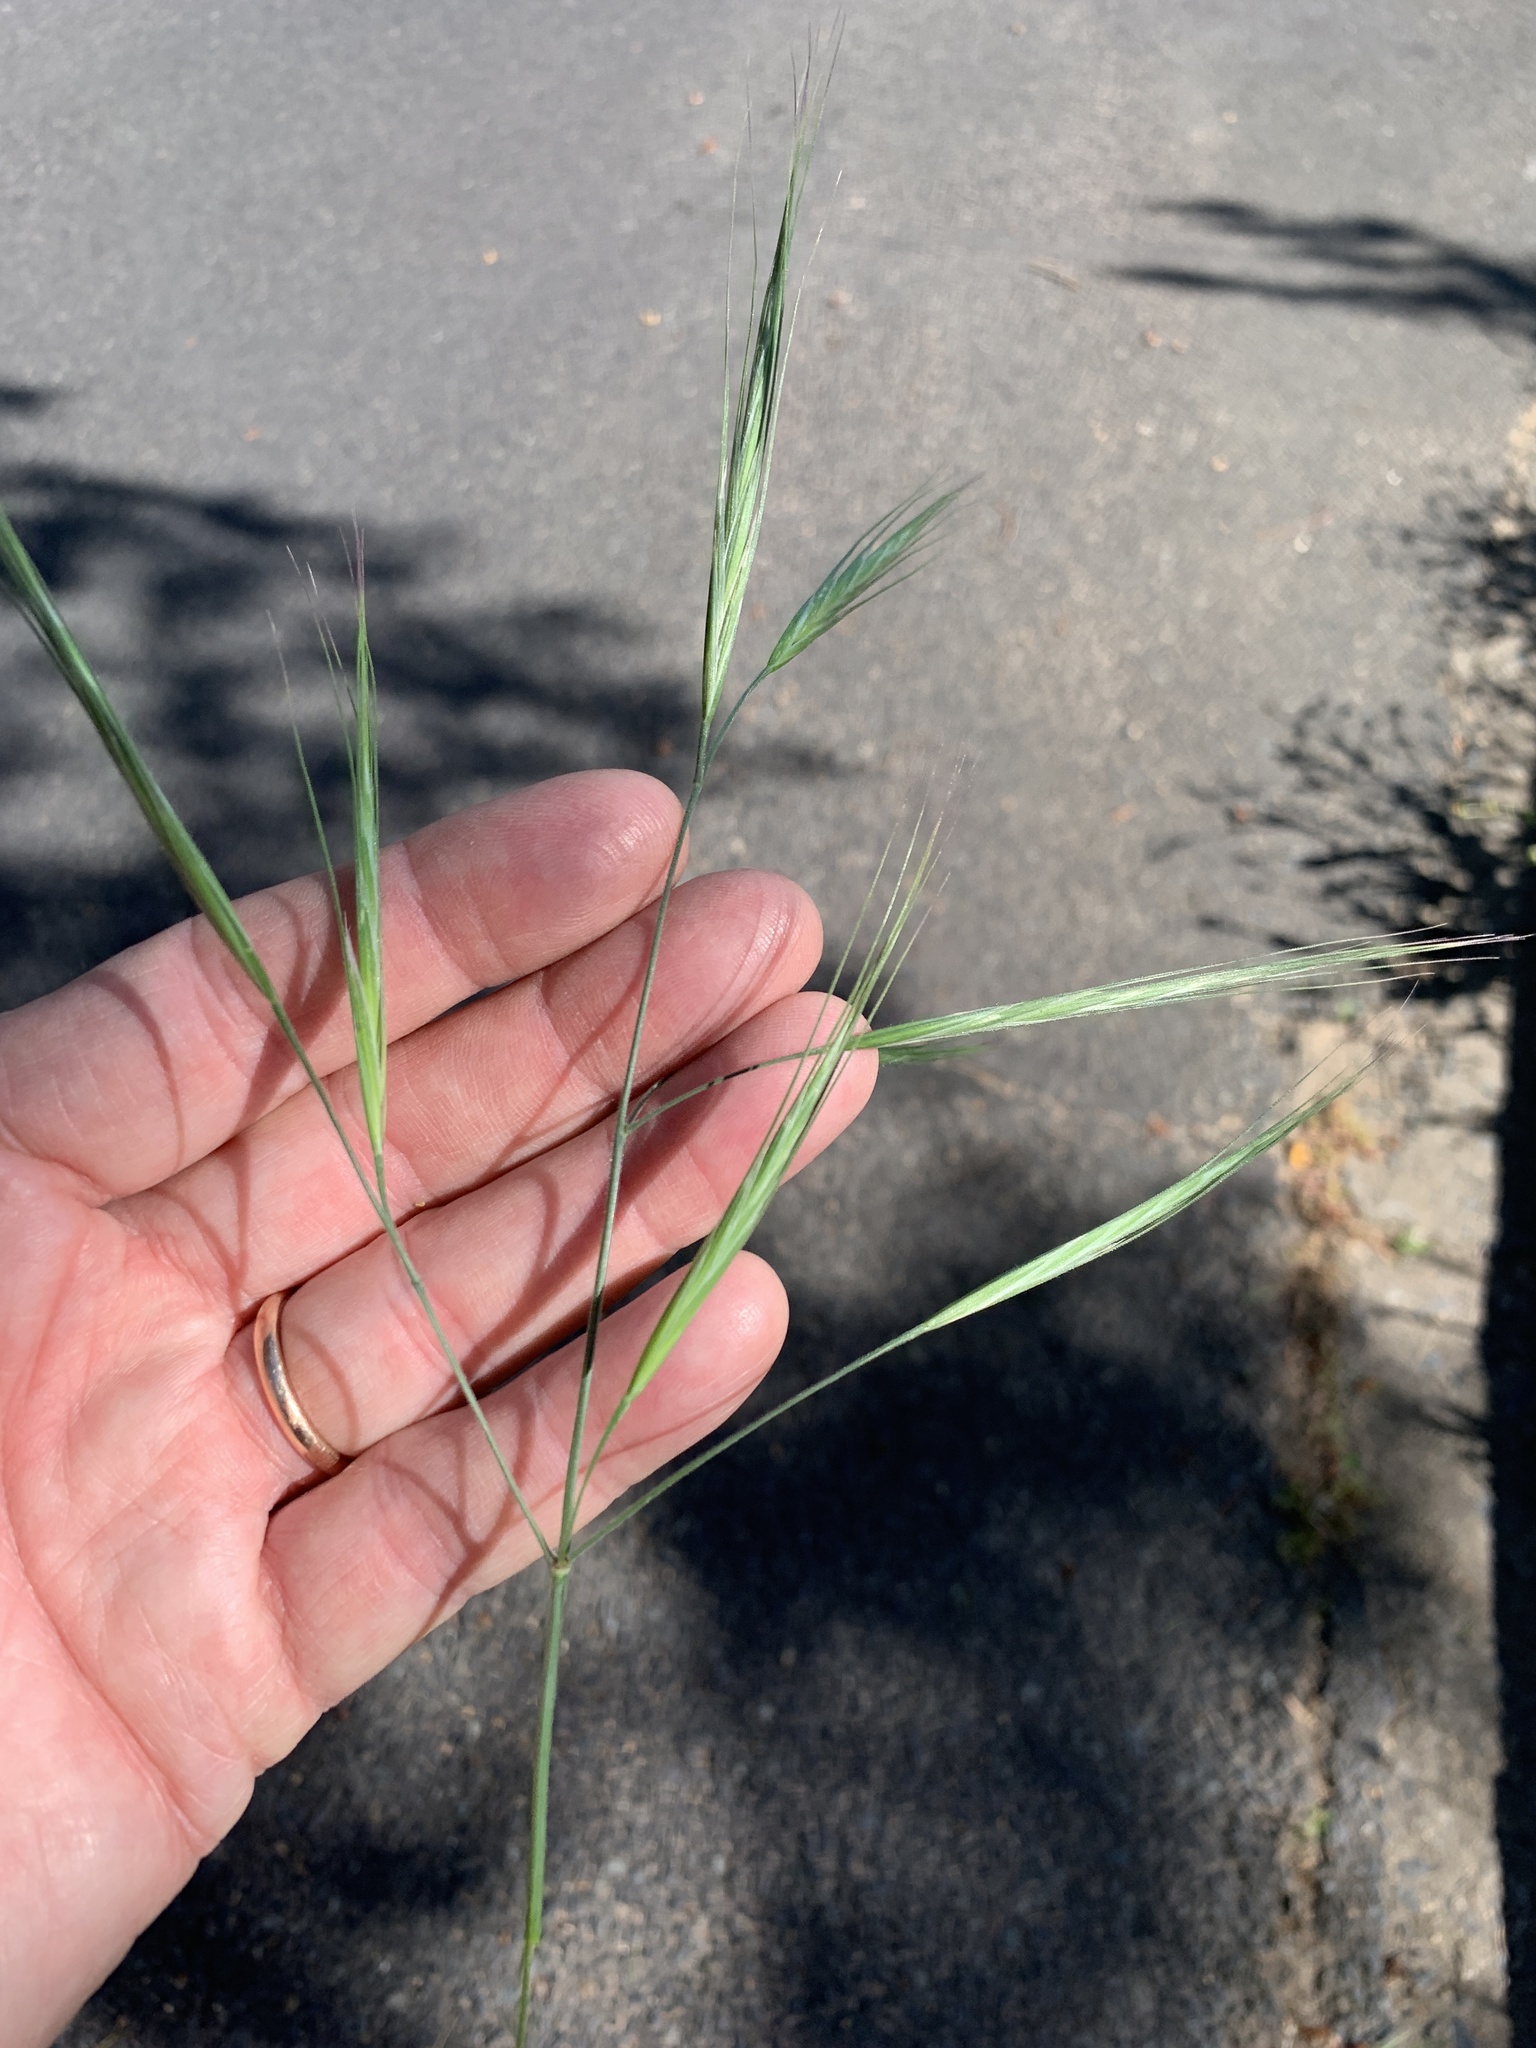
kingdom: Plantae
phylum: Tracheophyta
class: Liliopsida
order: Poales
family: Poaceae
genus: Bromus
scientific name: Bromus diandrus
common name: Ripgut brome
